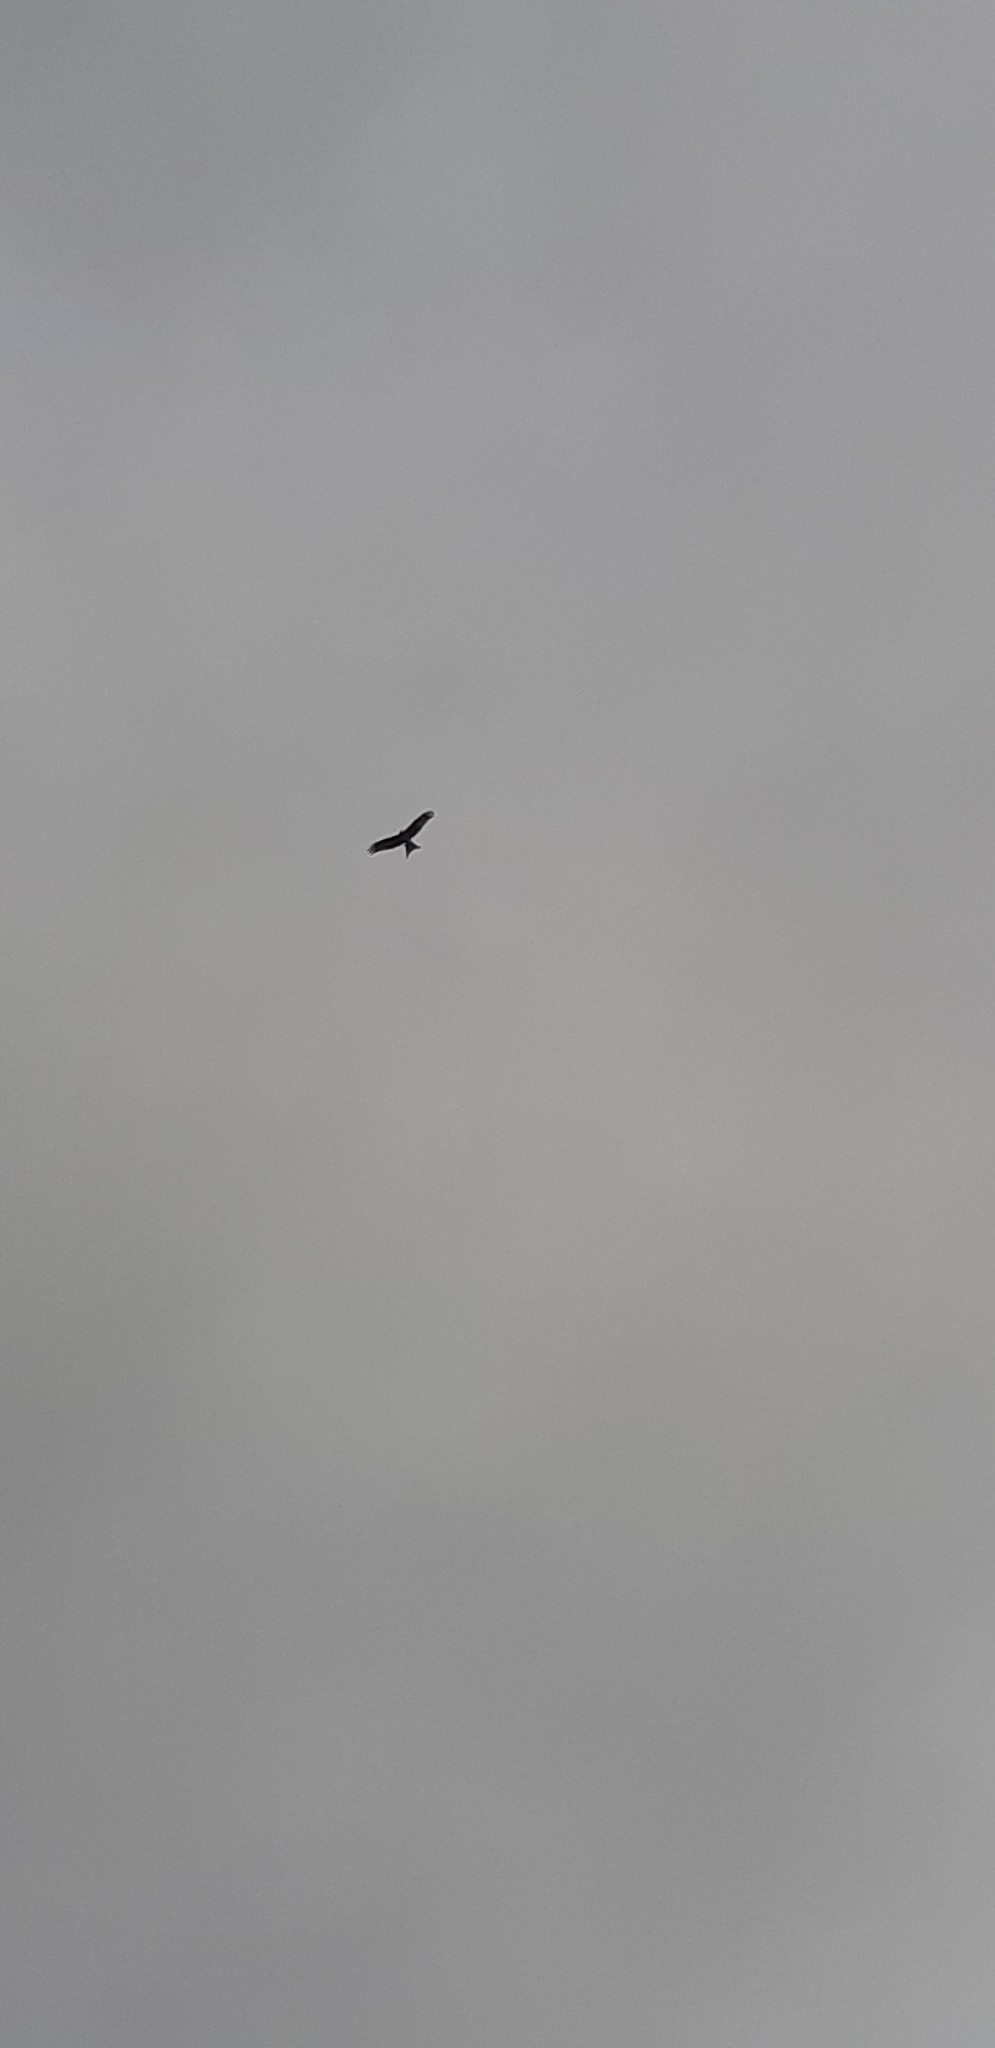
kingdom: Animalia
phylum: Chordata
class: Aves
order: Accipitriformes
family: Accipitridae
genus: Milvus
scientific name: Milvus milvus
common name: Red kite
